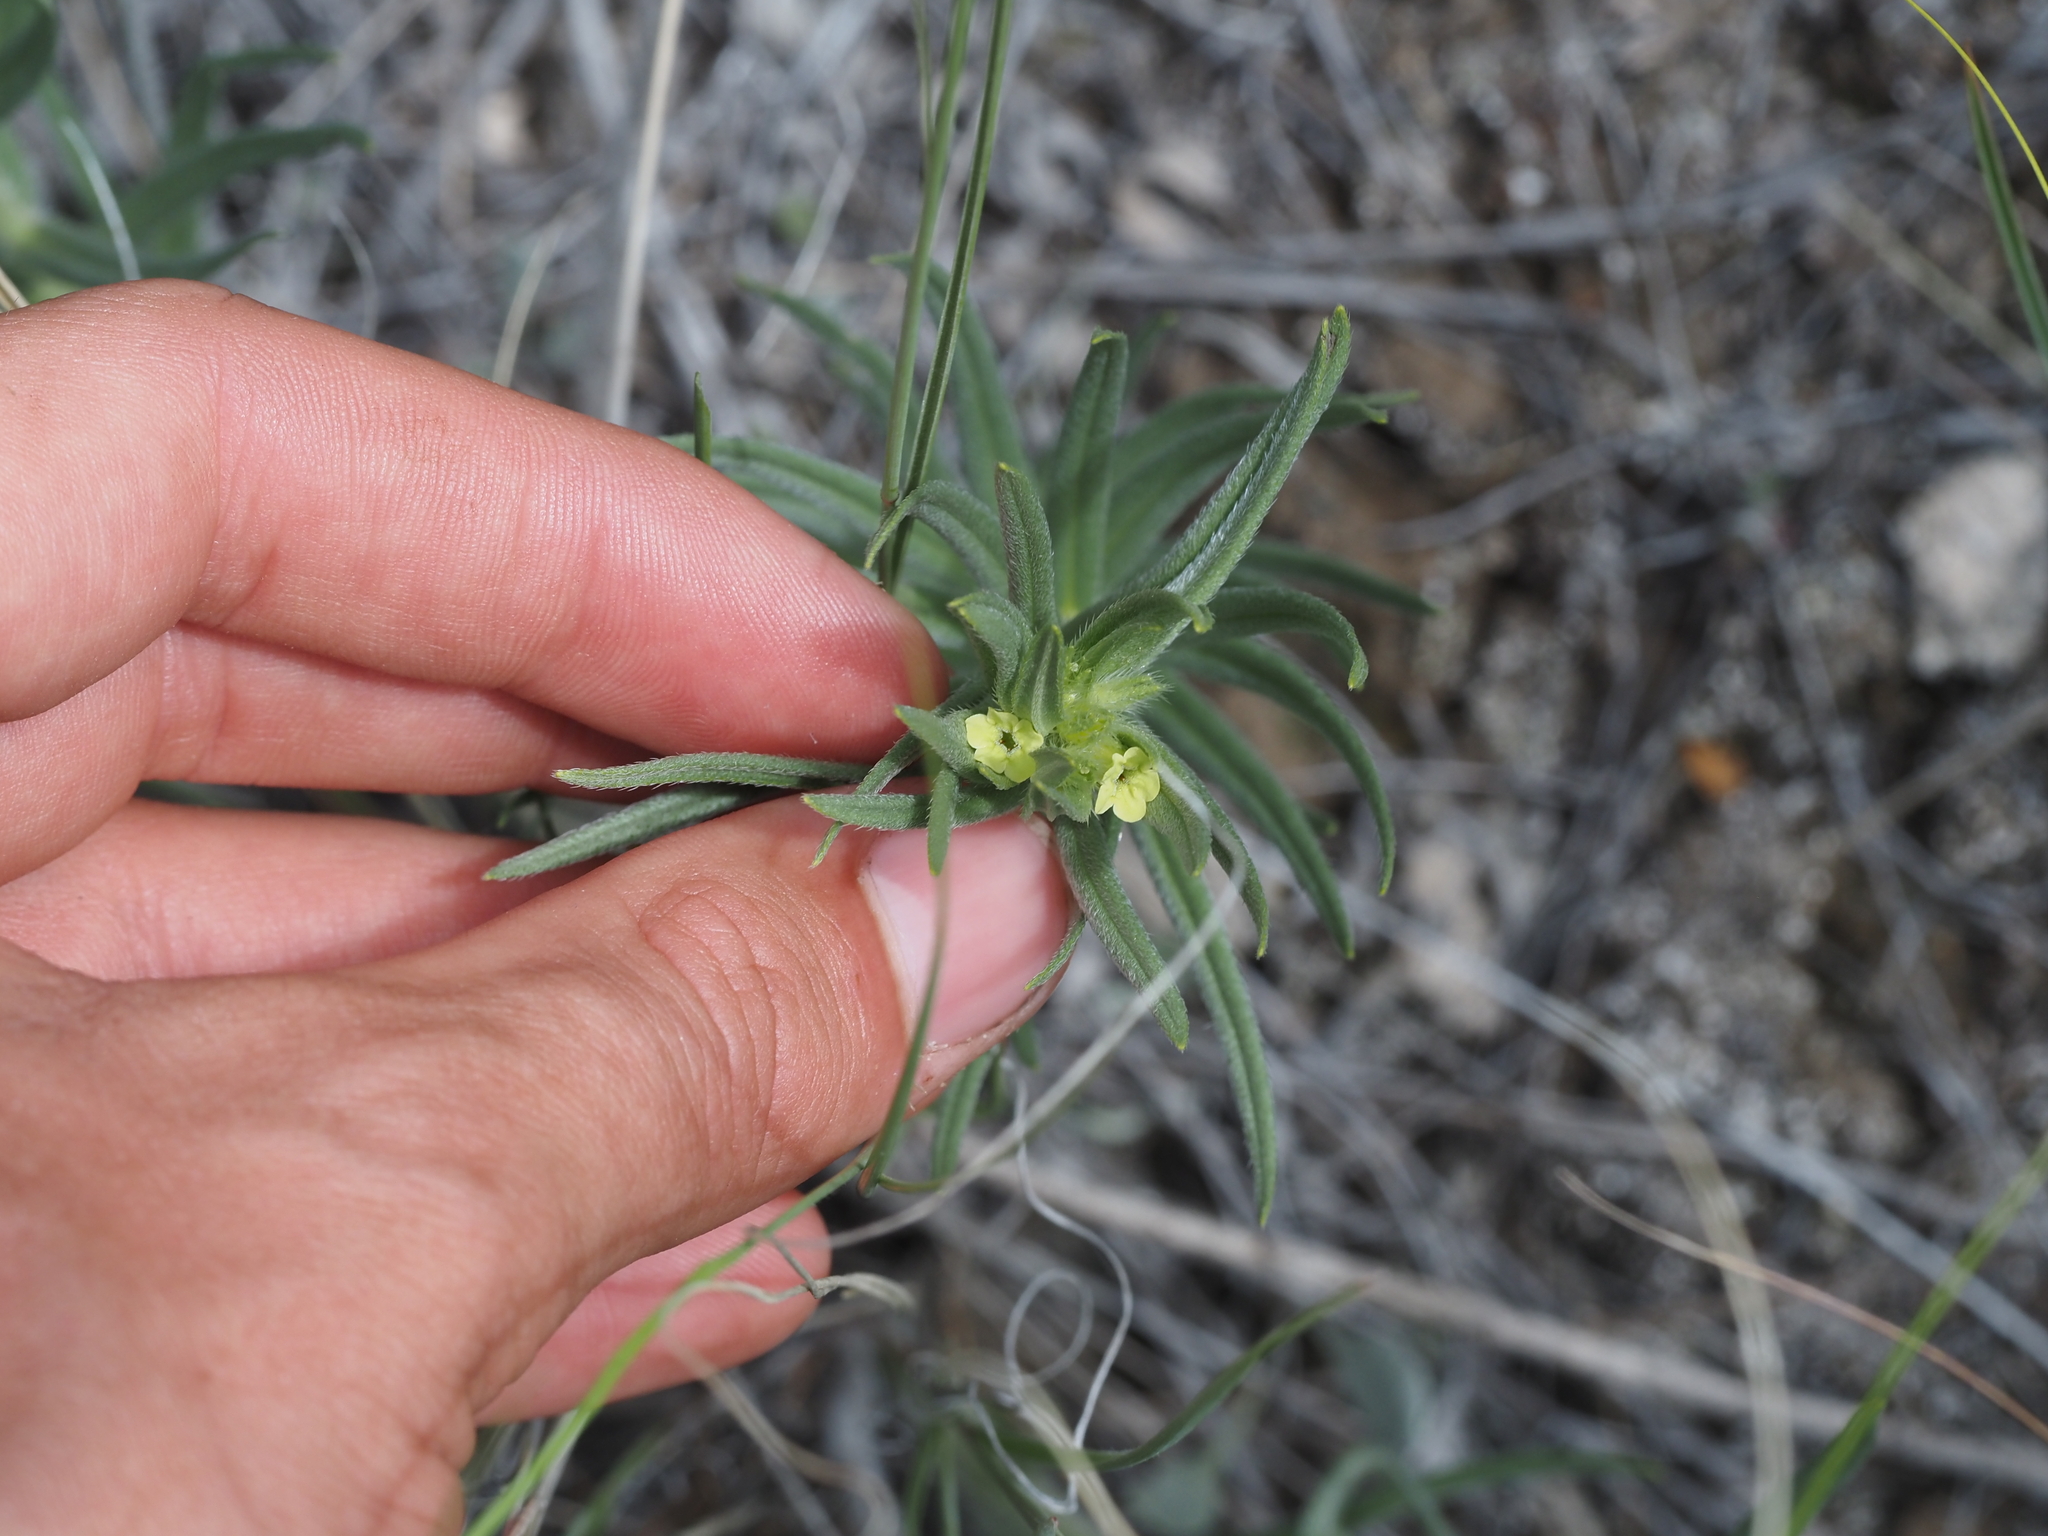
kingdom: Plantae
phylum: Tracheophyta
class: Magnoliopsida
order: Boraginales
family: Boraginaceae
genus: Lithospermum
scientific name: Lithospermum ruderale
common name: Western gromwell
